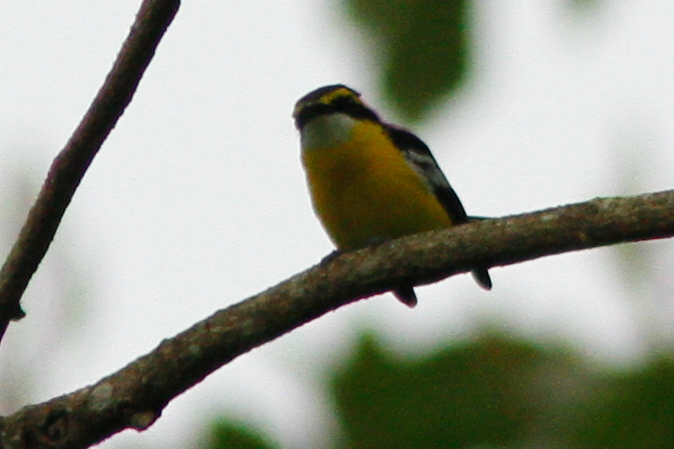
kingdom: Animalia
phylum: Chordata
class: Aves
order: Passeriformes
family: Machaerirhynchidae
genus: Machaerirhynchus
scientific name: Machaerirhynchus flaviventer
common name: Yellow-breasted boatbill
